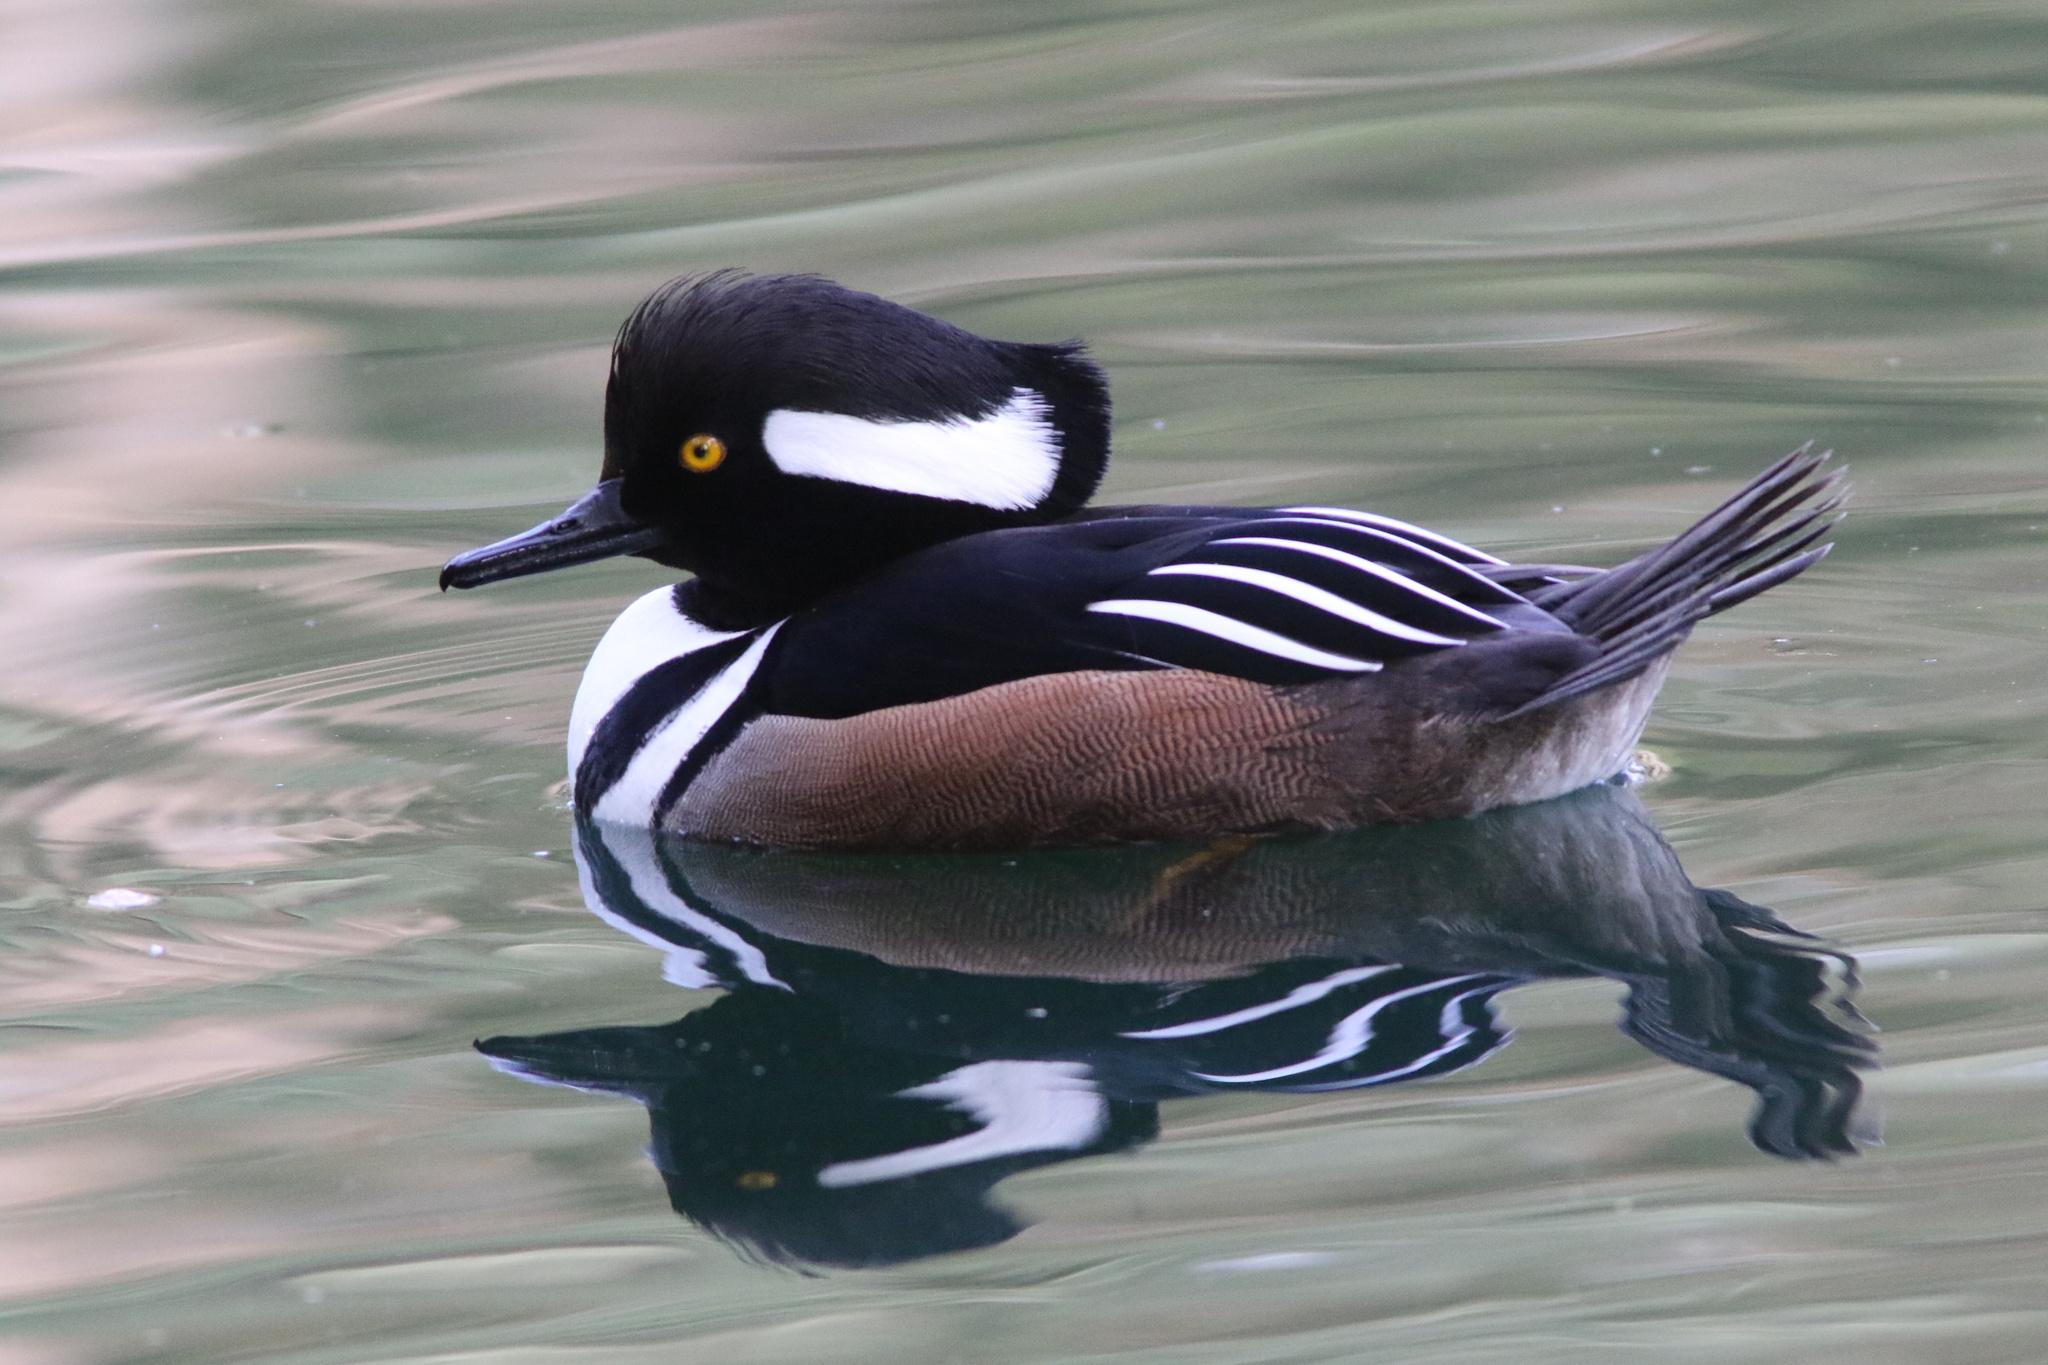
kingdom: Animalia
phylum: Chordata
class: Aves
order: Anseriformes
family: Anatidae
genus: Lophodytes
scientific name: Lophodytes cucullatus
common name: Hooded merganser
